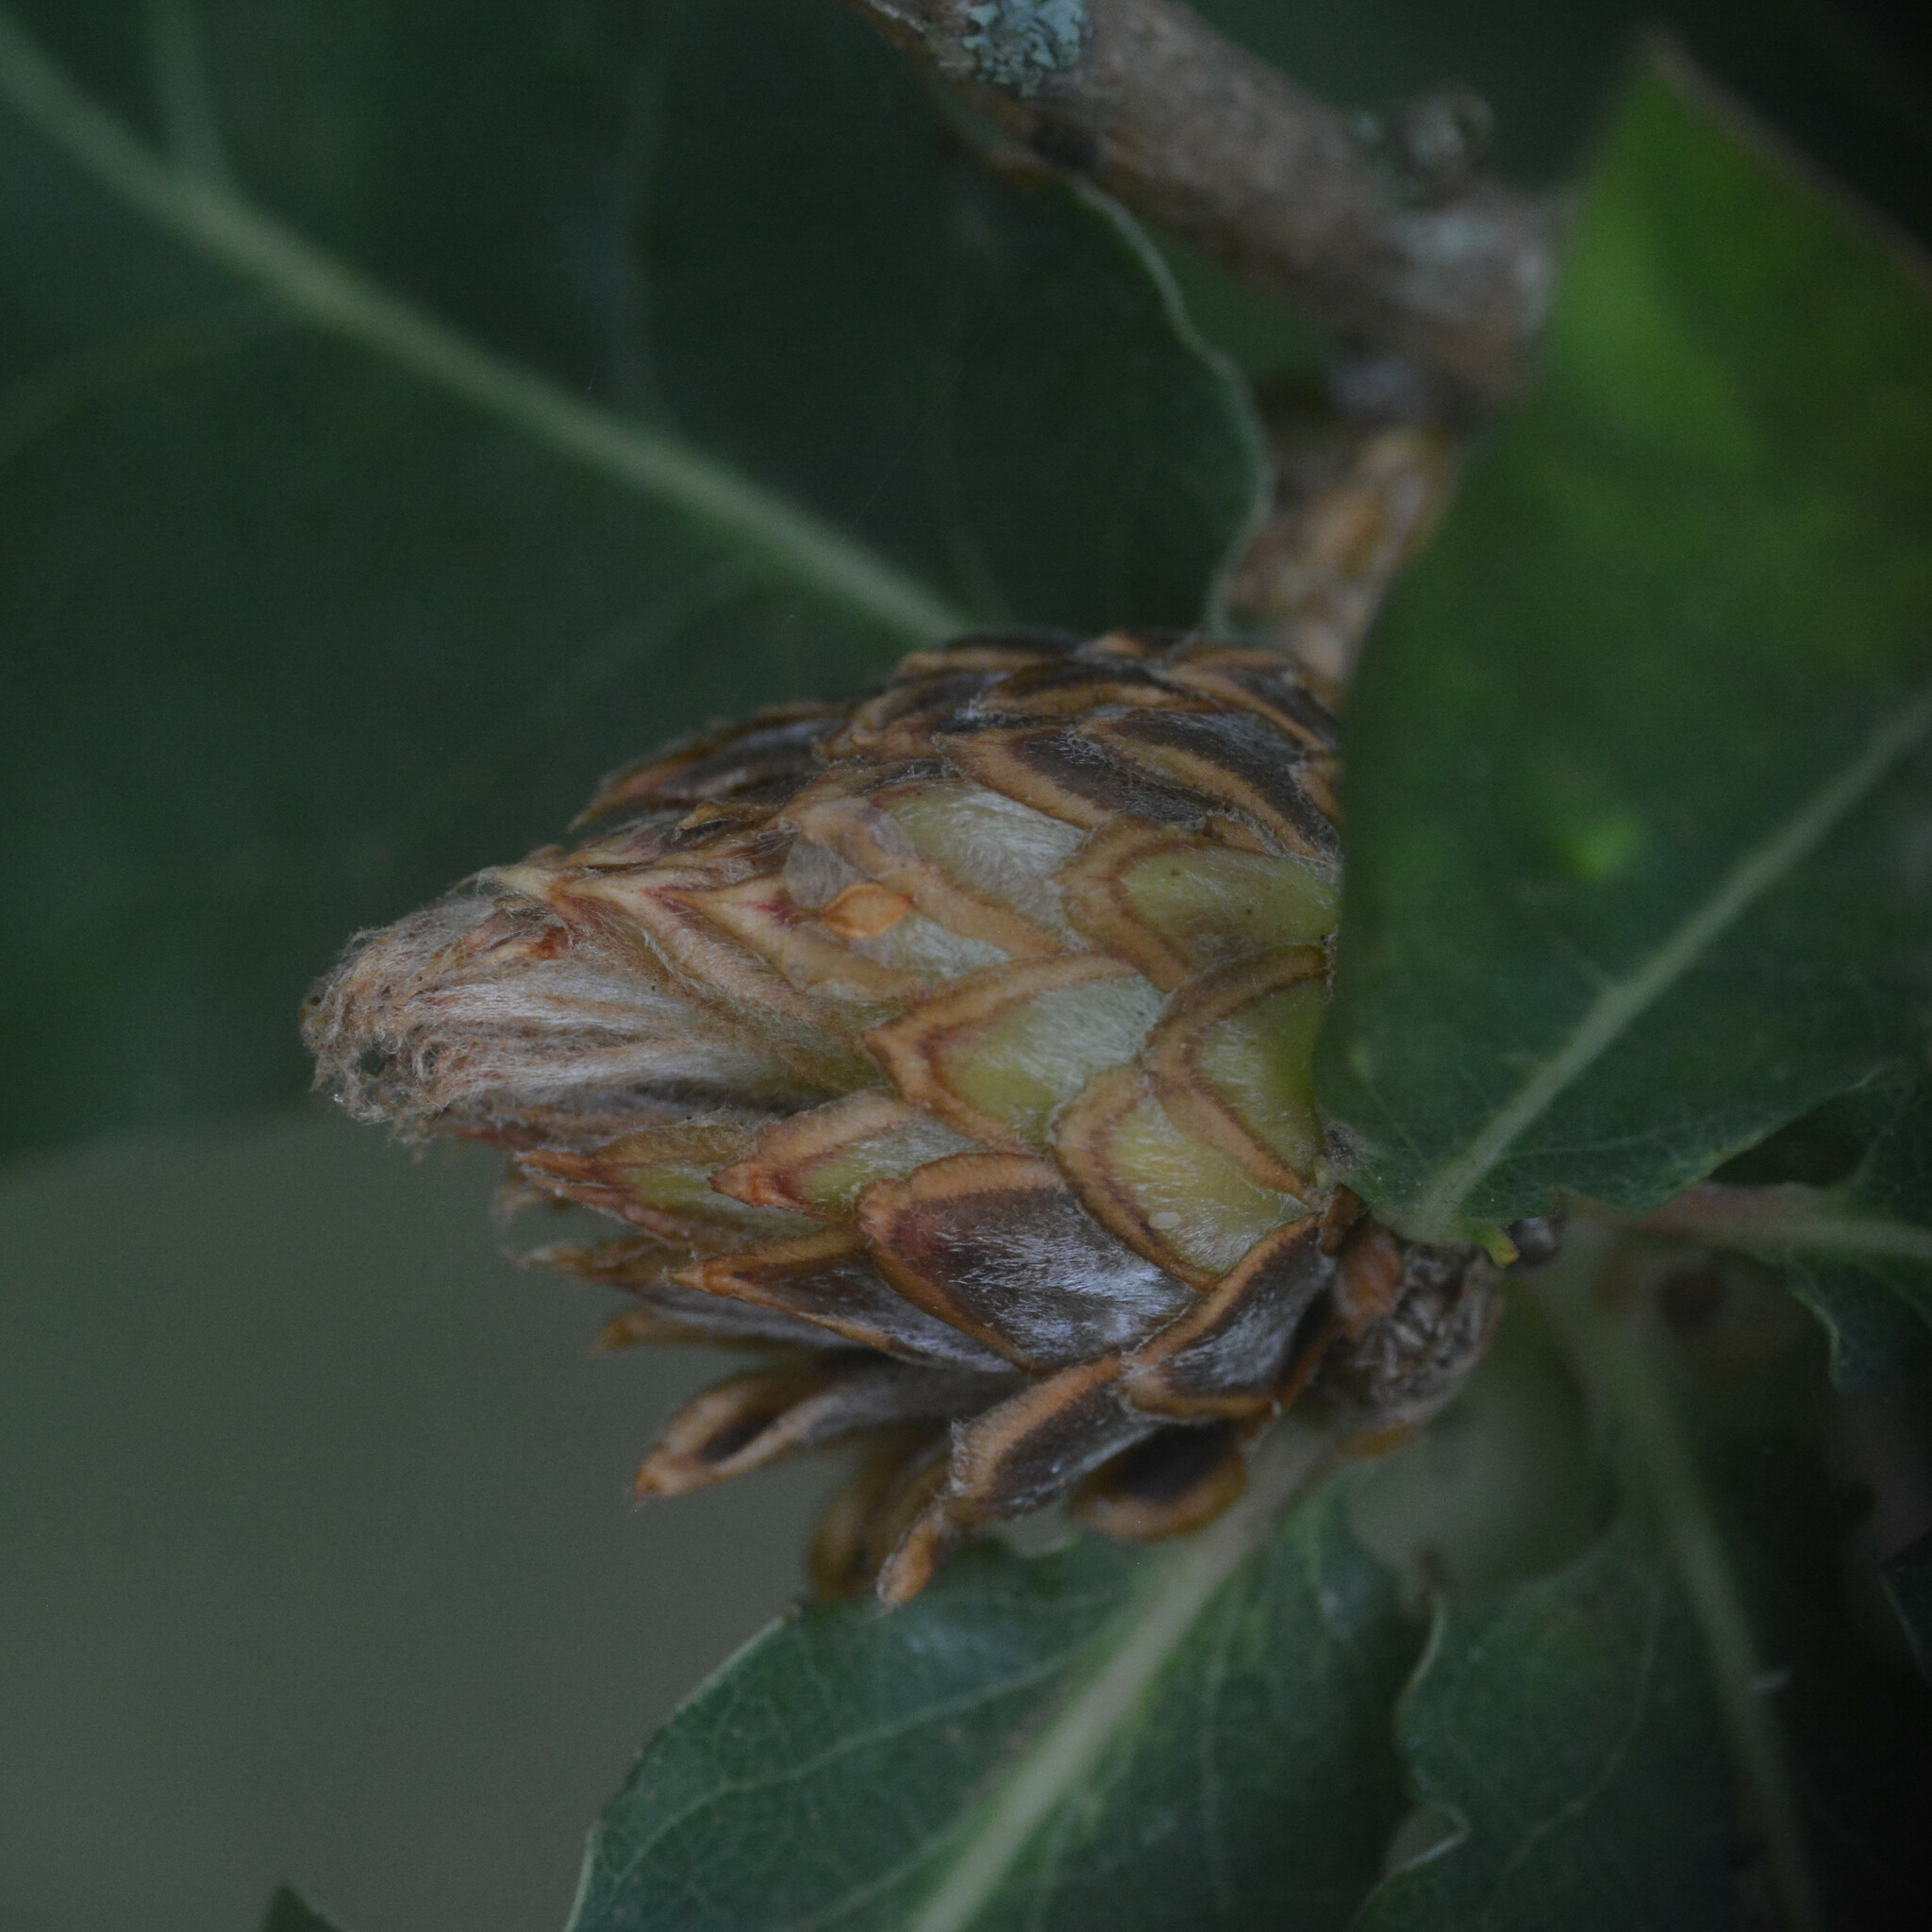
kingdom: Animalia
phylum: Arthropoda
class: Insecta
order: Hymenoptera
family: Cynipidae
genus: Andricus
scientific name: Andricus foecundatrix
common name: Artichoke gall
